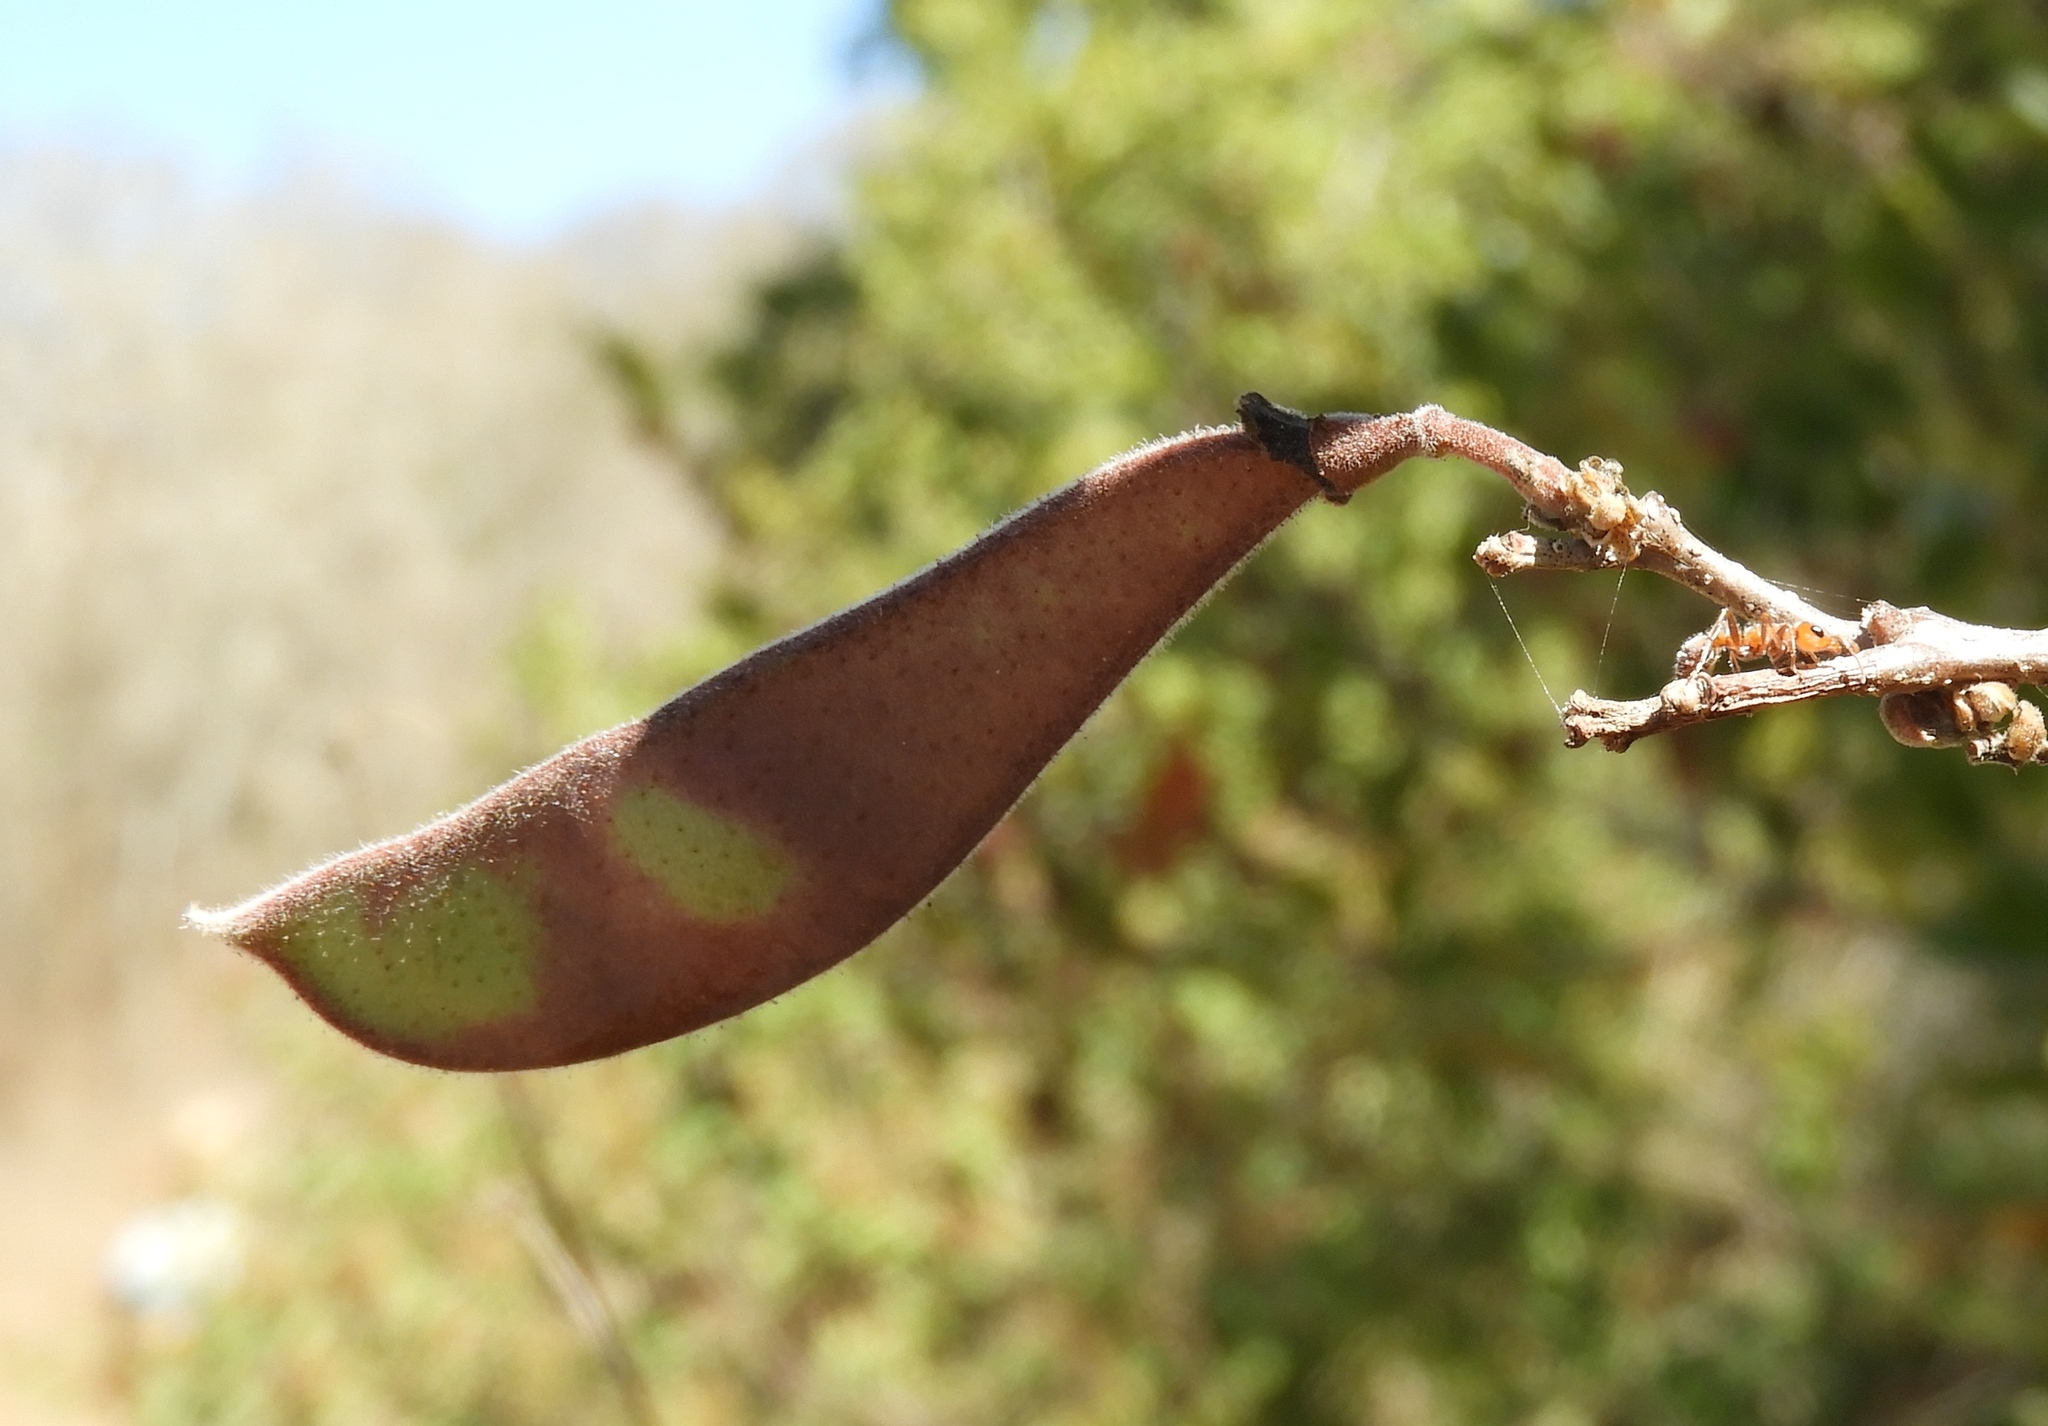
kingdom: Plantae
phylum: Tracheophyta
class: Magnoliopsida
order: Fabales
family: Fabaceae
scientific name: Fabaceae
